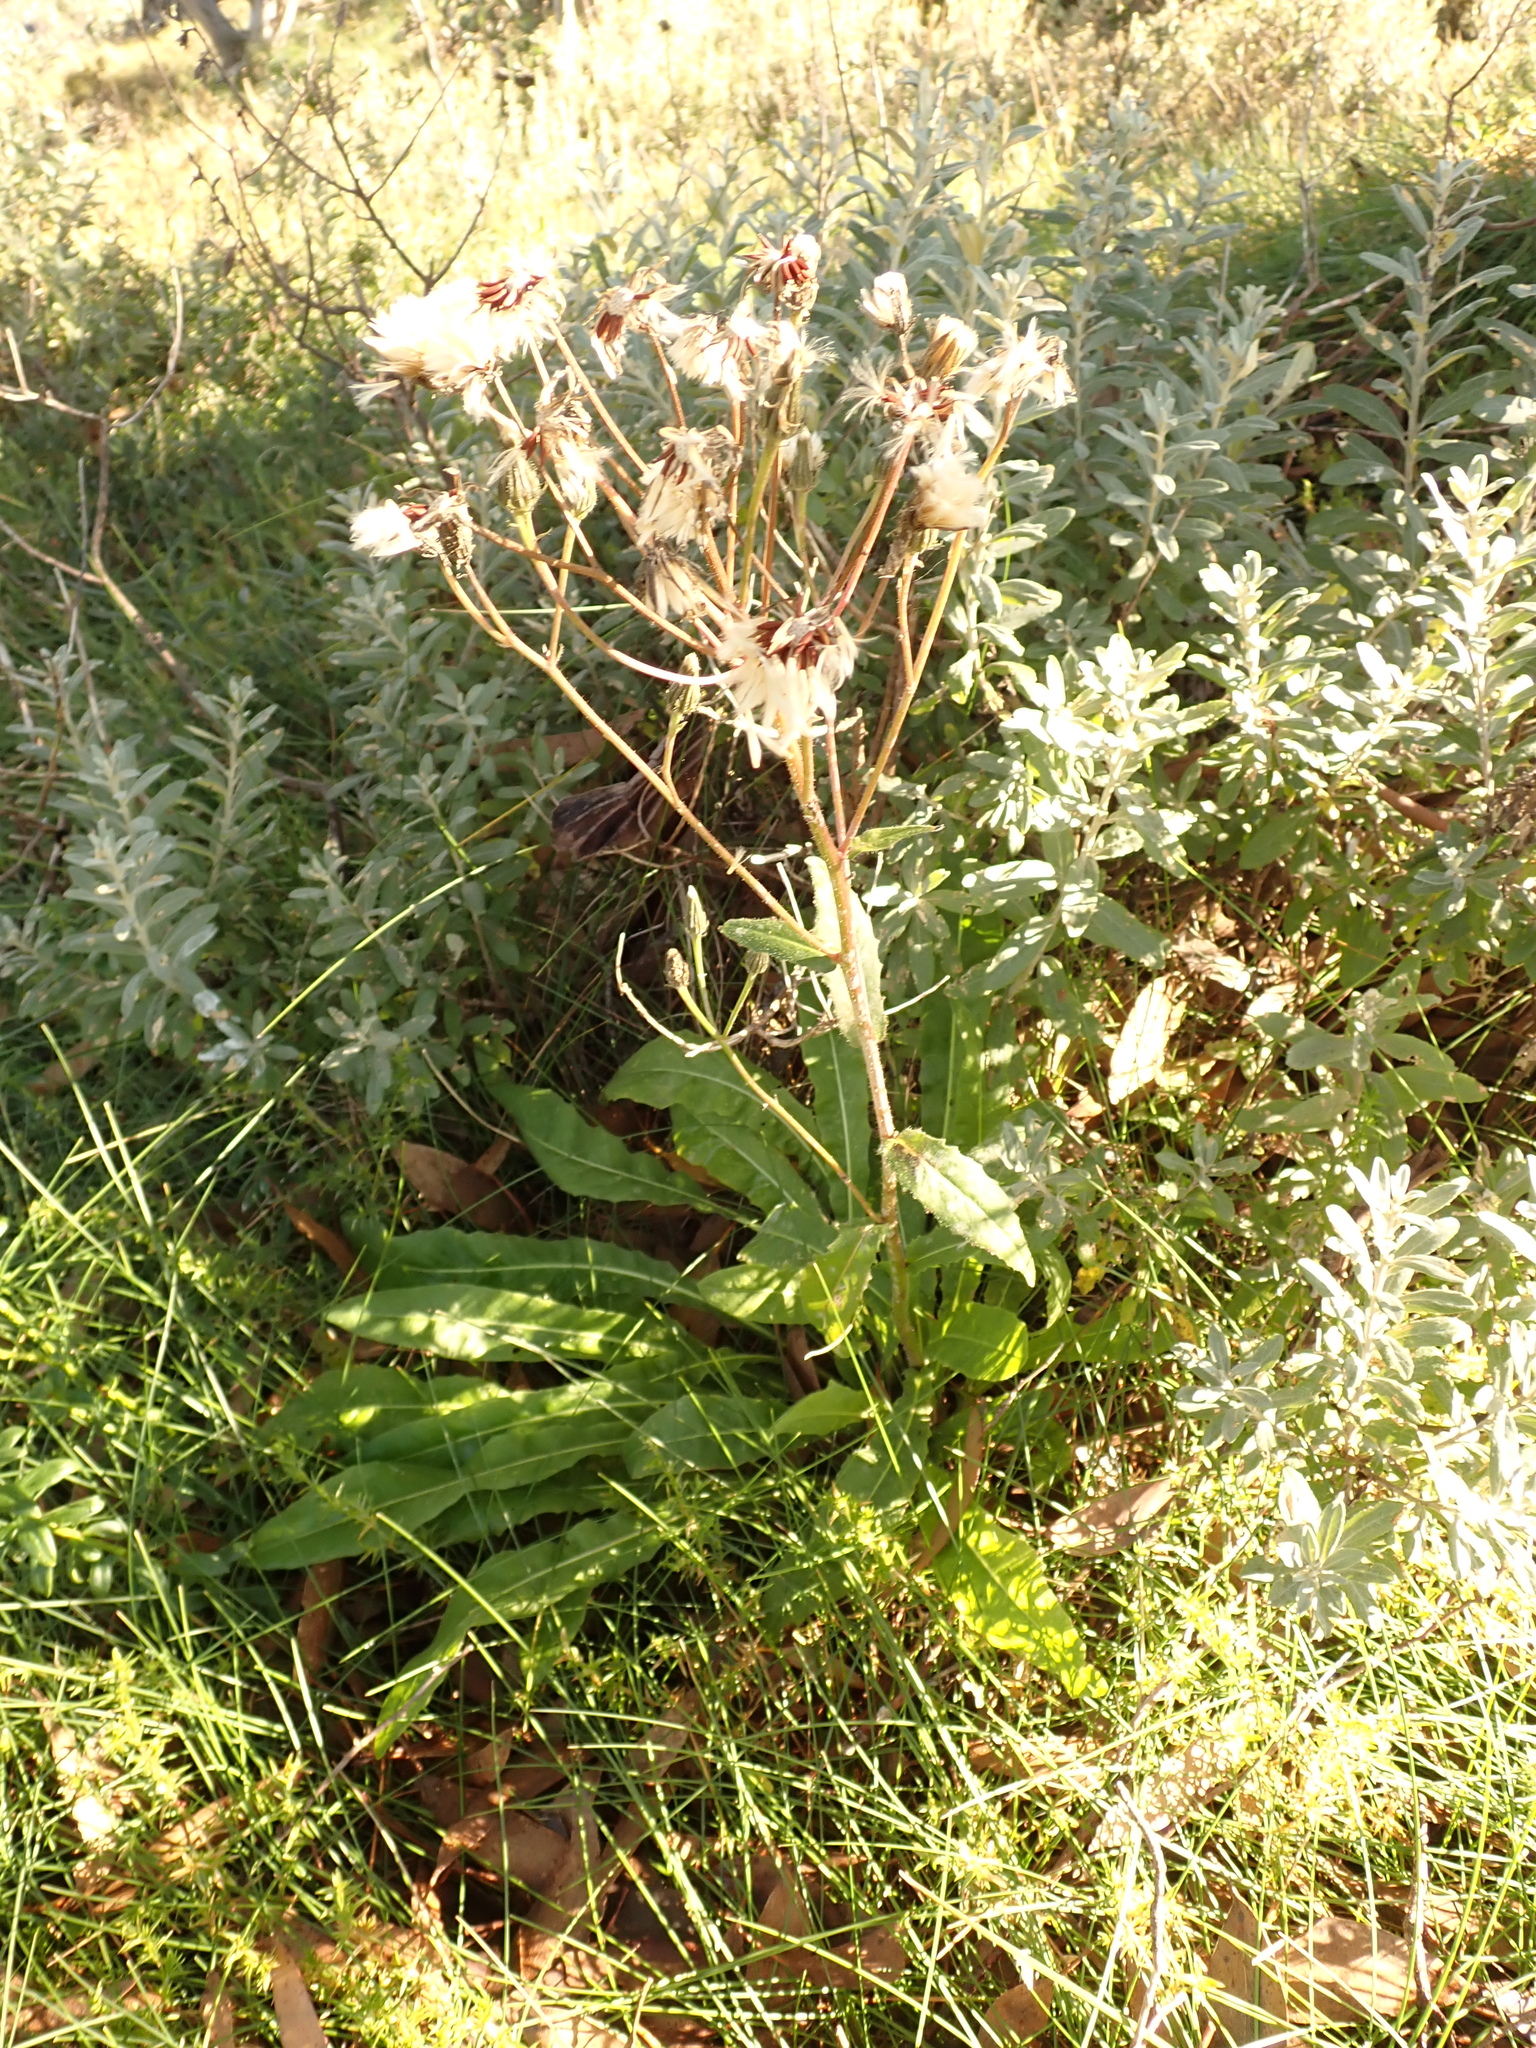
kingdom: Plantae
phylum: Tracheophyta
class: Magnoliopsida
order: Asterales
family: Asteraceae
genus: Picris
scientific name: Picris angustifolia
